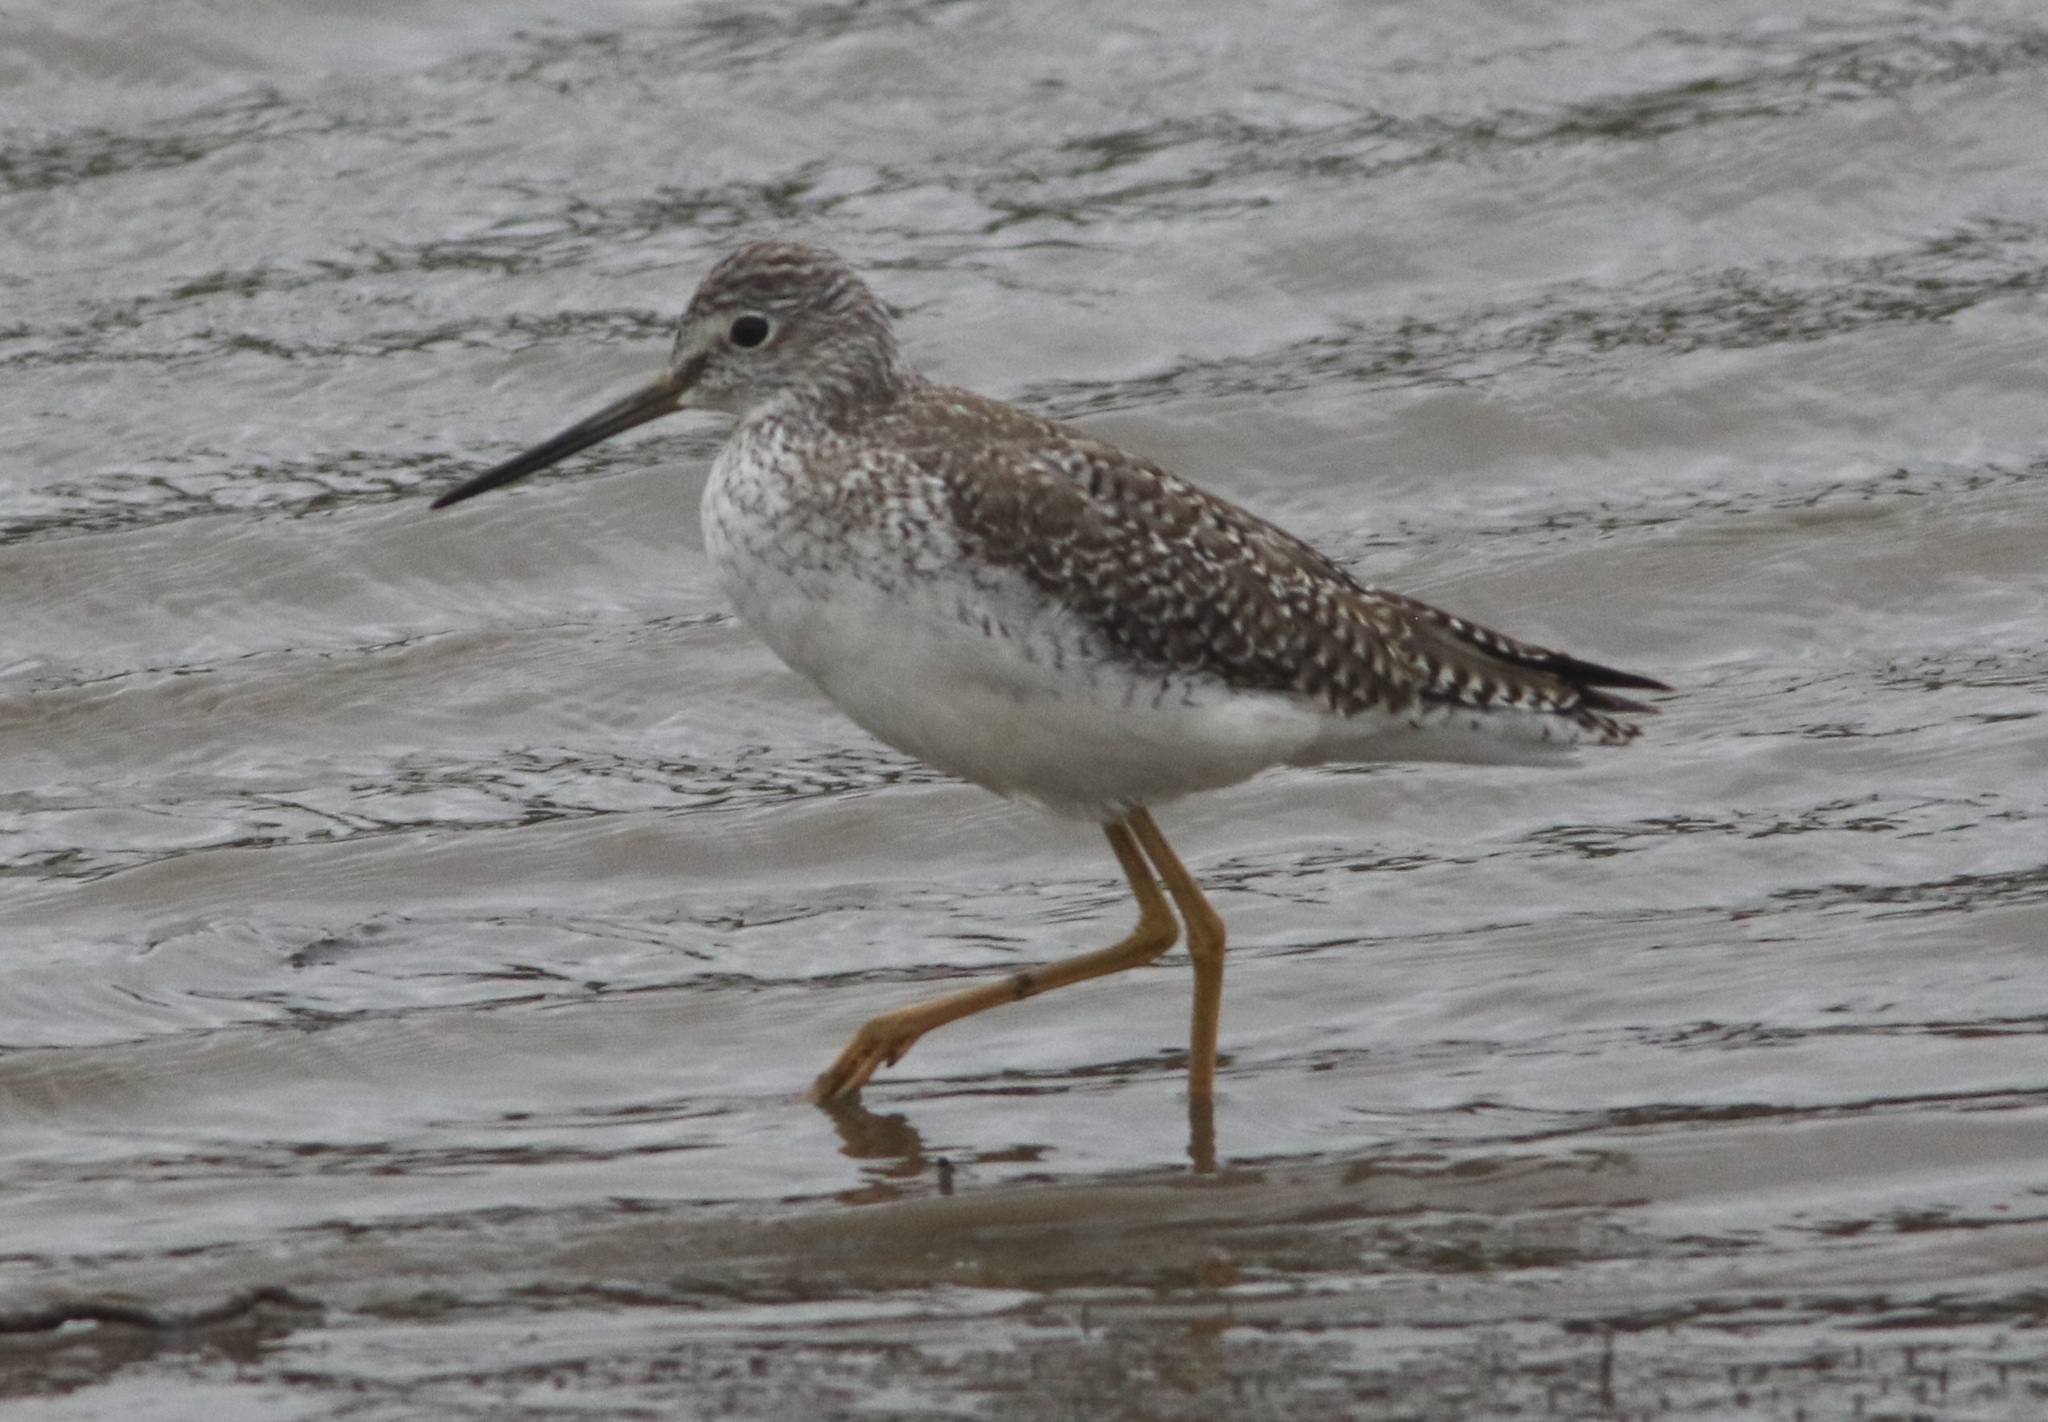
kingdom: Animalia
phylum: Chordata
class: Aves
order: Charadriiformes
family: Scolopacidae
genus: Tringa
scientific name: Tringa melanoleuca
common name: Greater yellowlegs
